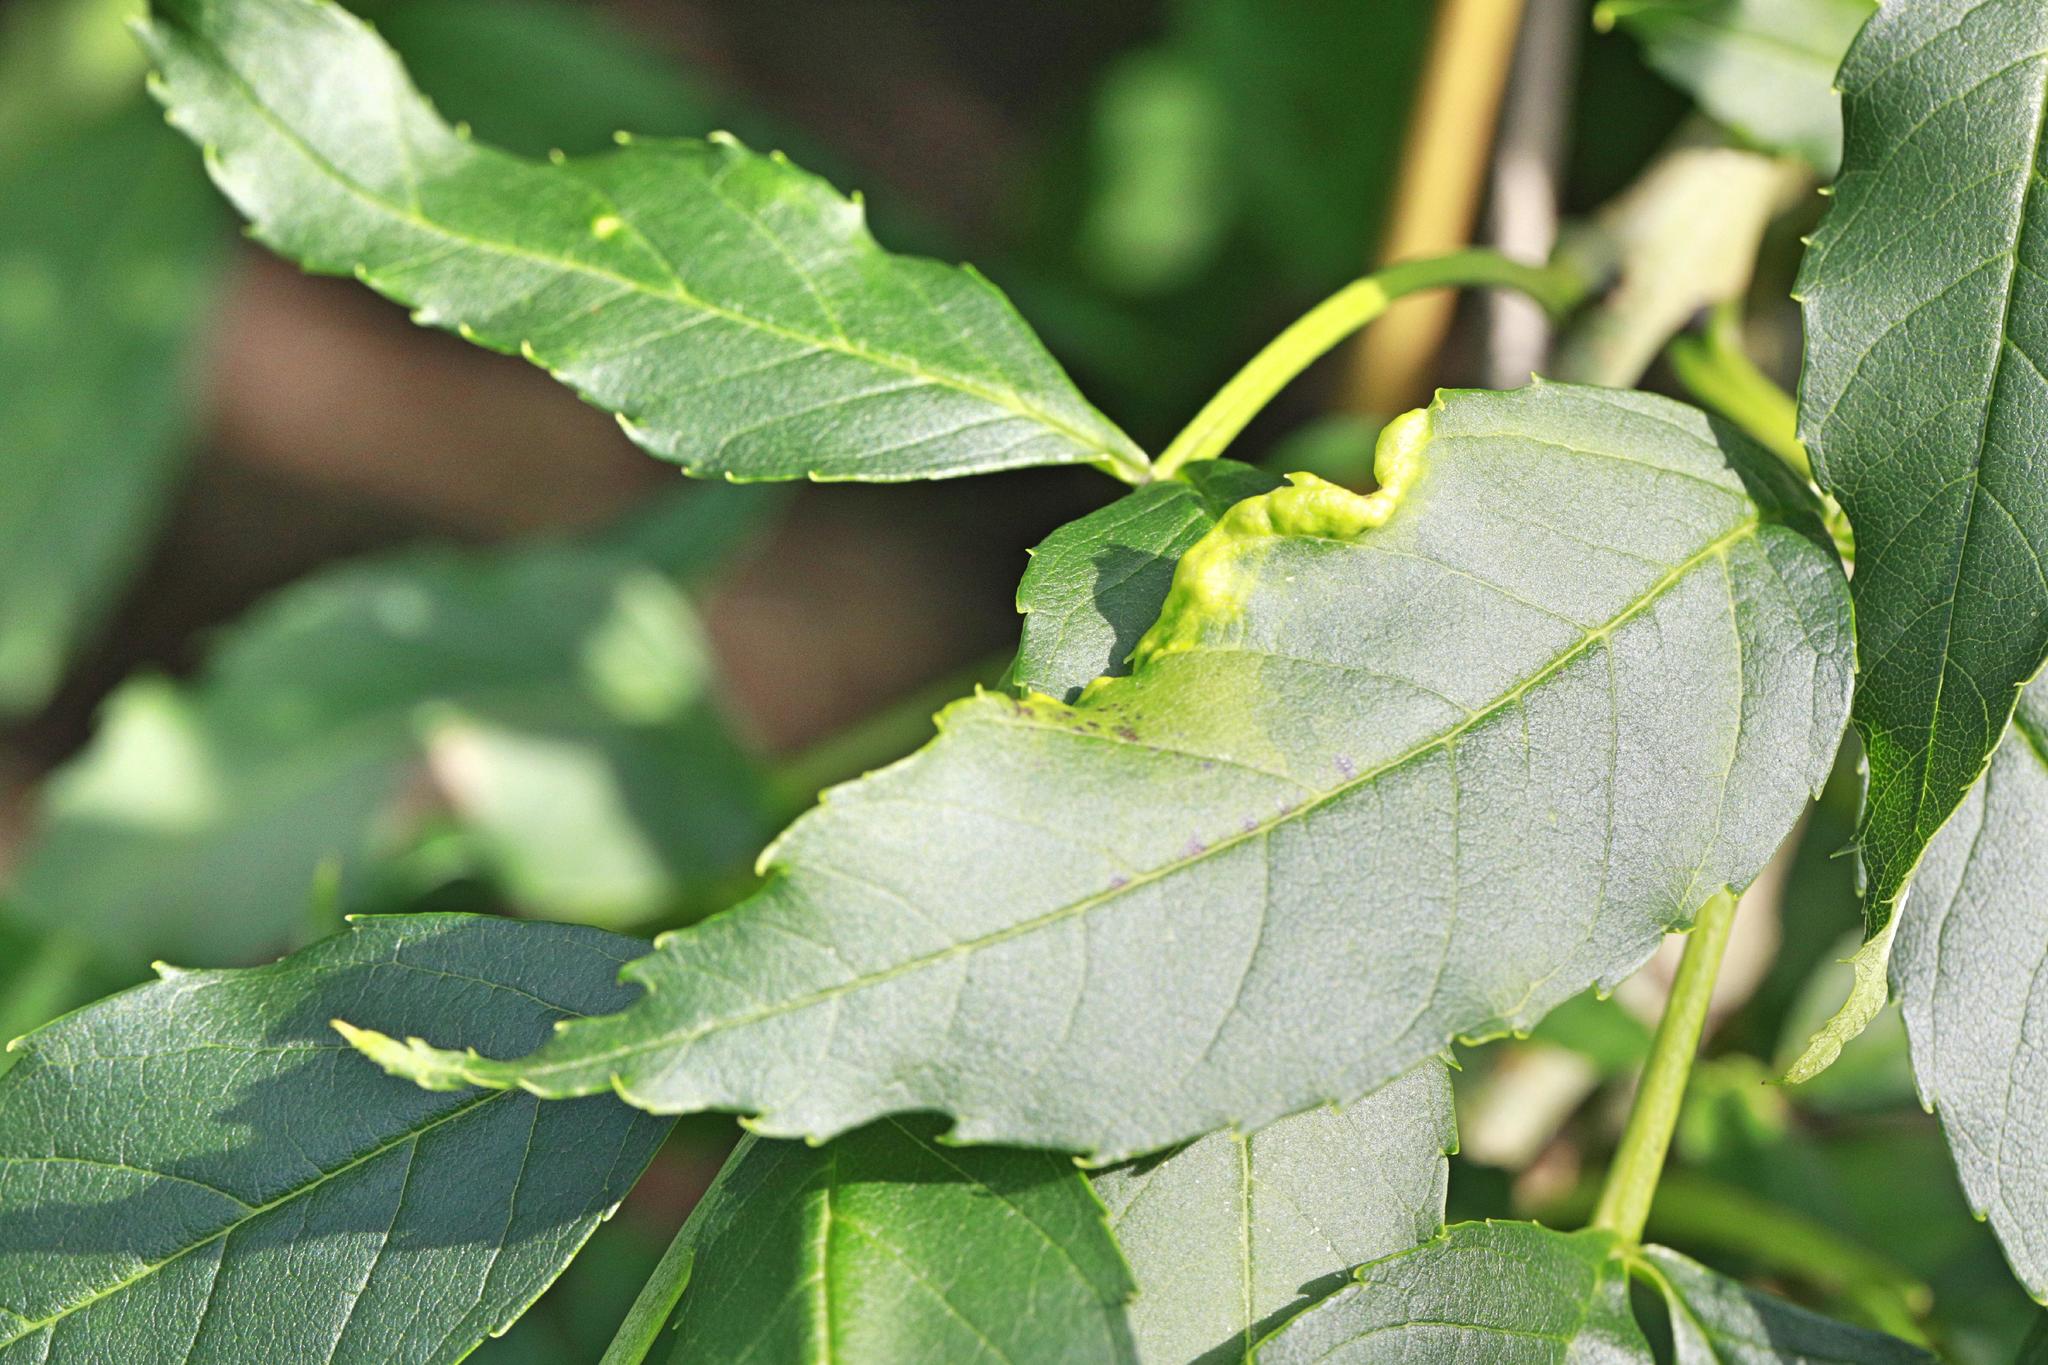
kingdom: Animalia
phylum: Arthropoda
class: Insecta
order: Hemiptera
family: Liviidae
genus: Psyllopsis
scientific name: Psyllopsis fraxini
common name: Jumping plant louse
